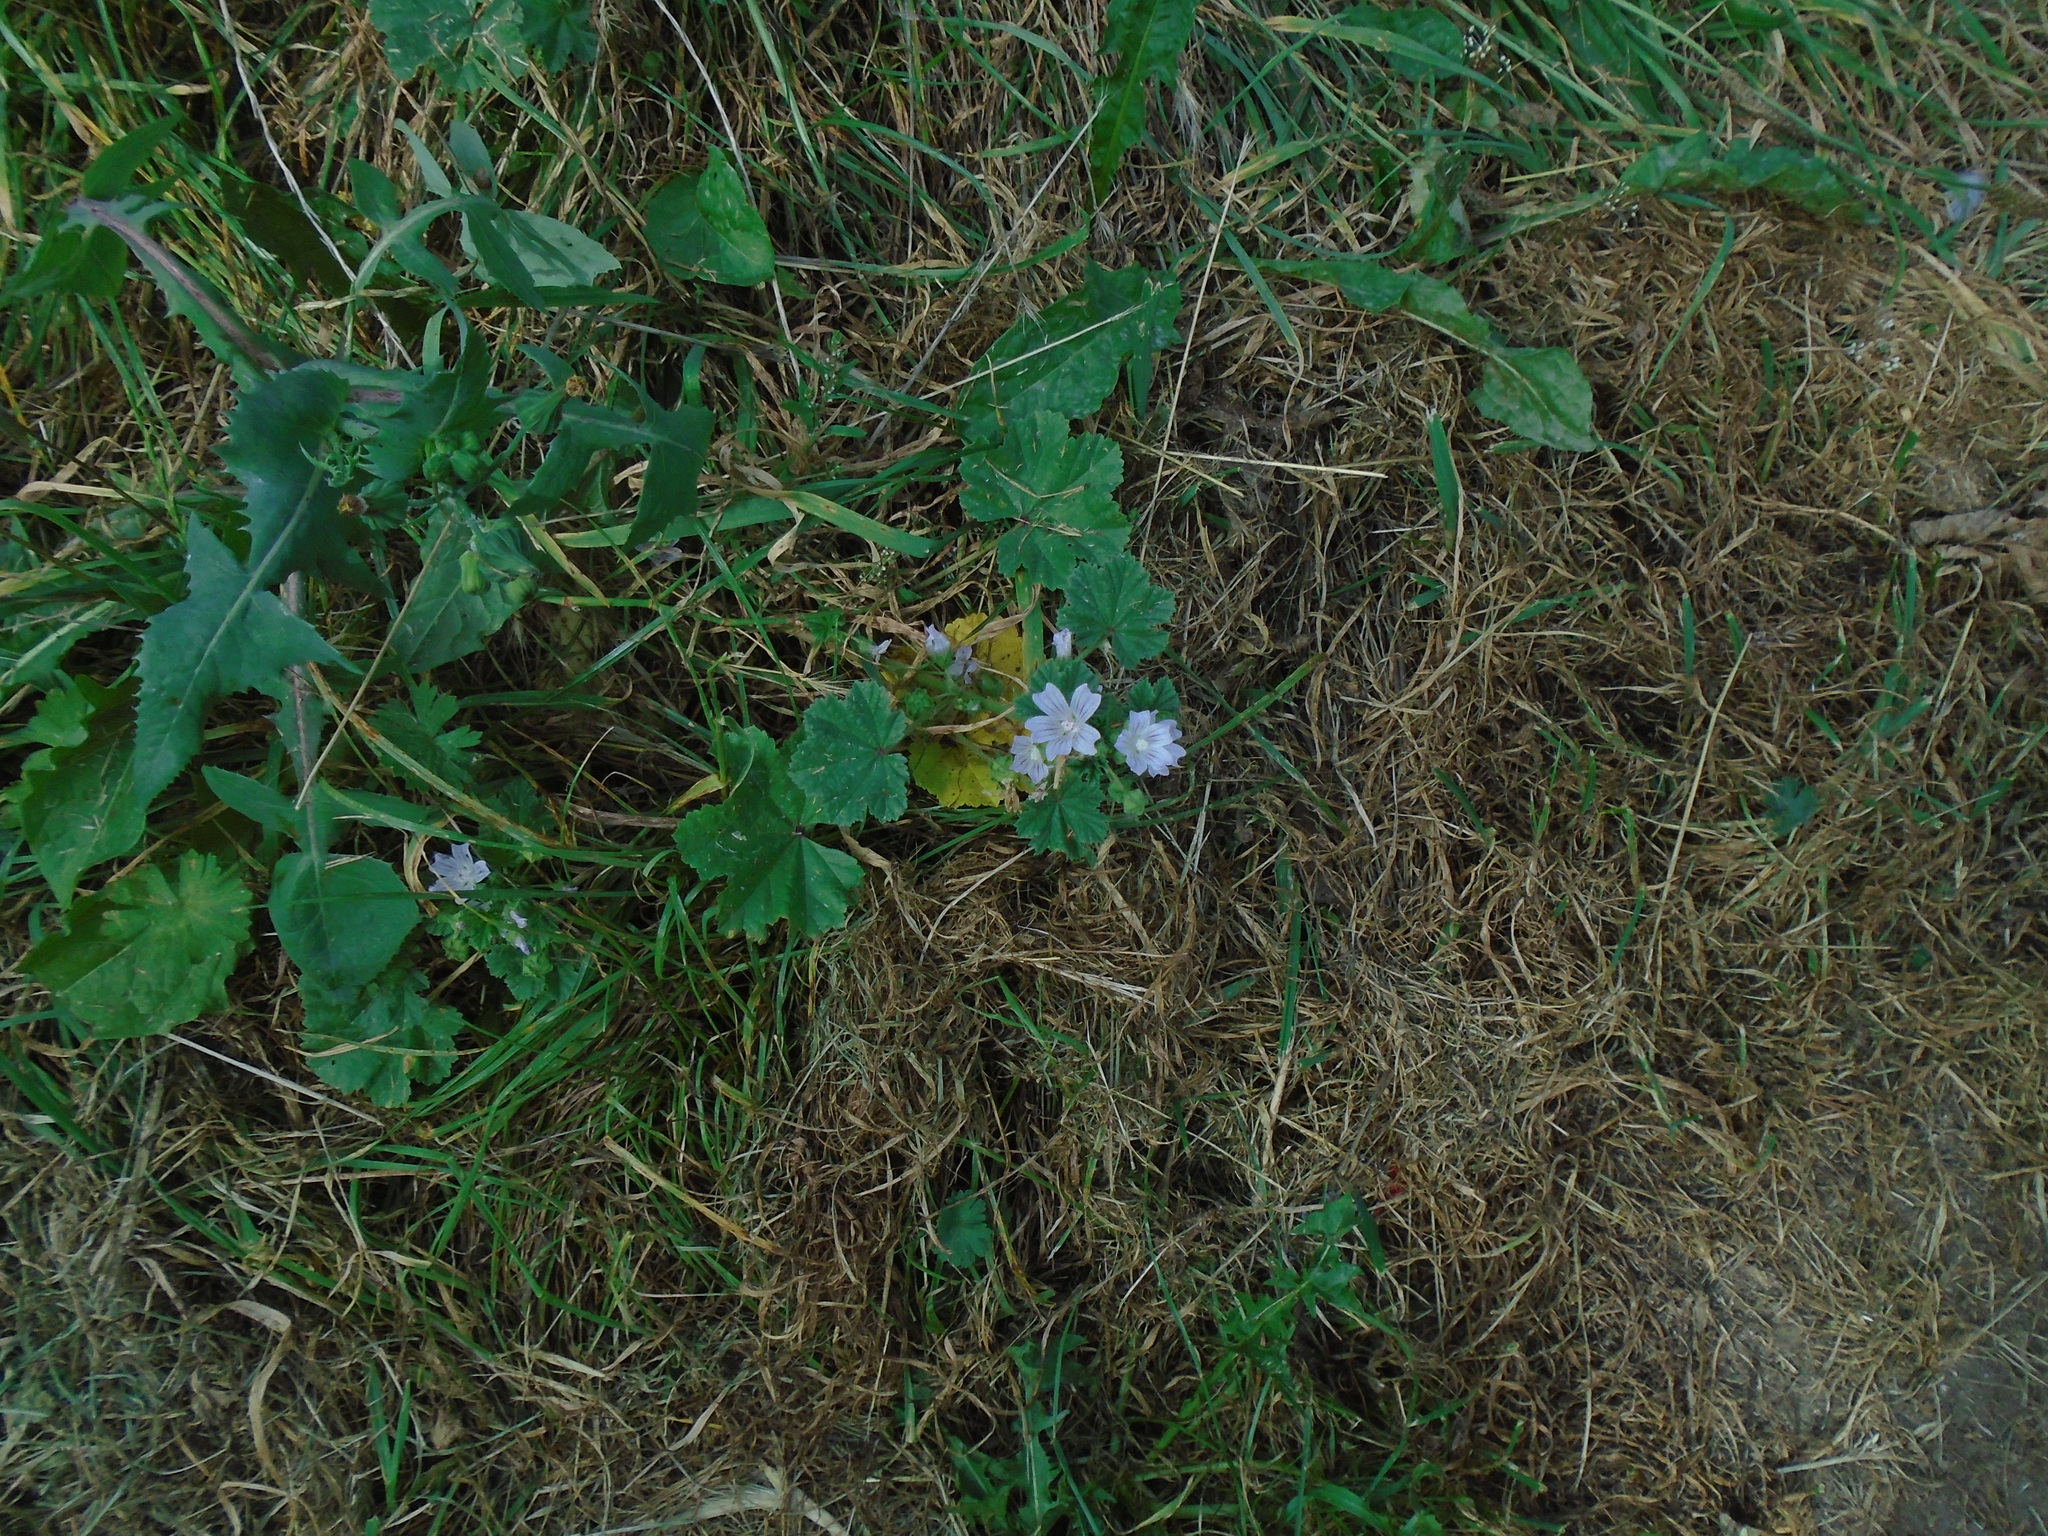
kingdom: Plantae
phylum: Tracheophyta
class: Magnoliopsida
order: Malvales
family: Malvaceae
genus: Malva
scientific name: Malva neglecta
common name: Common mallow
